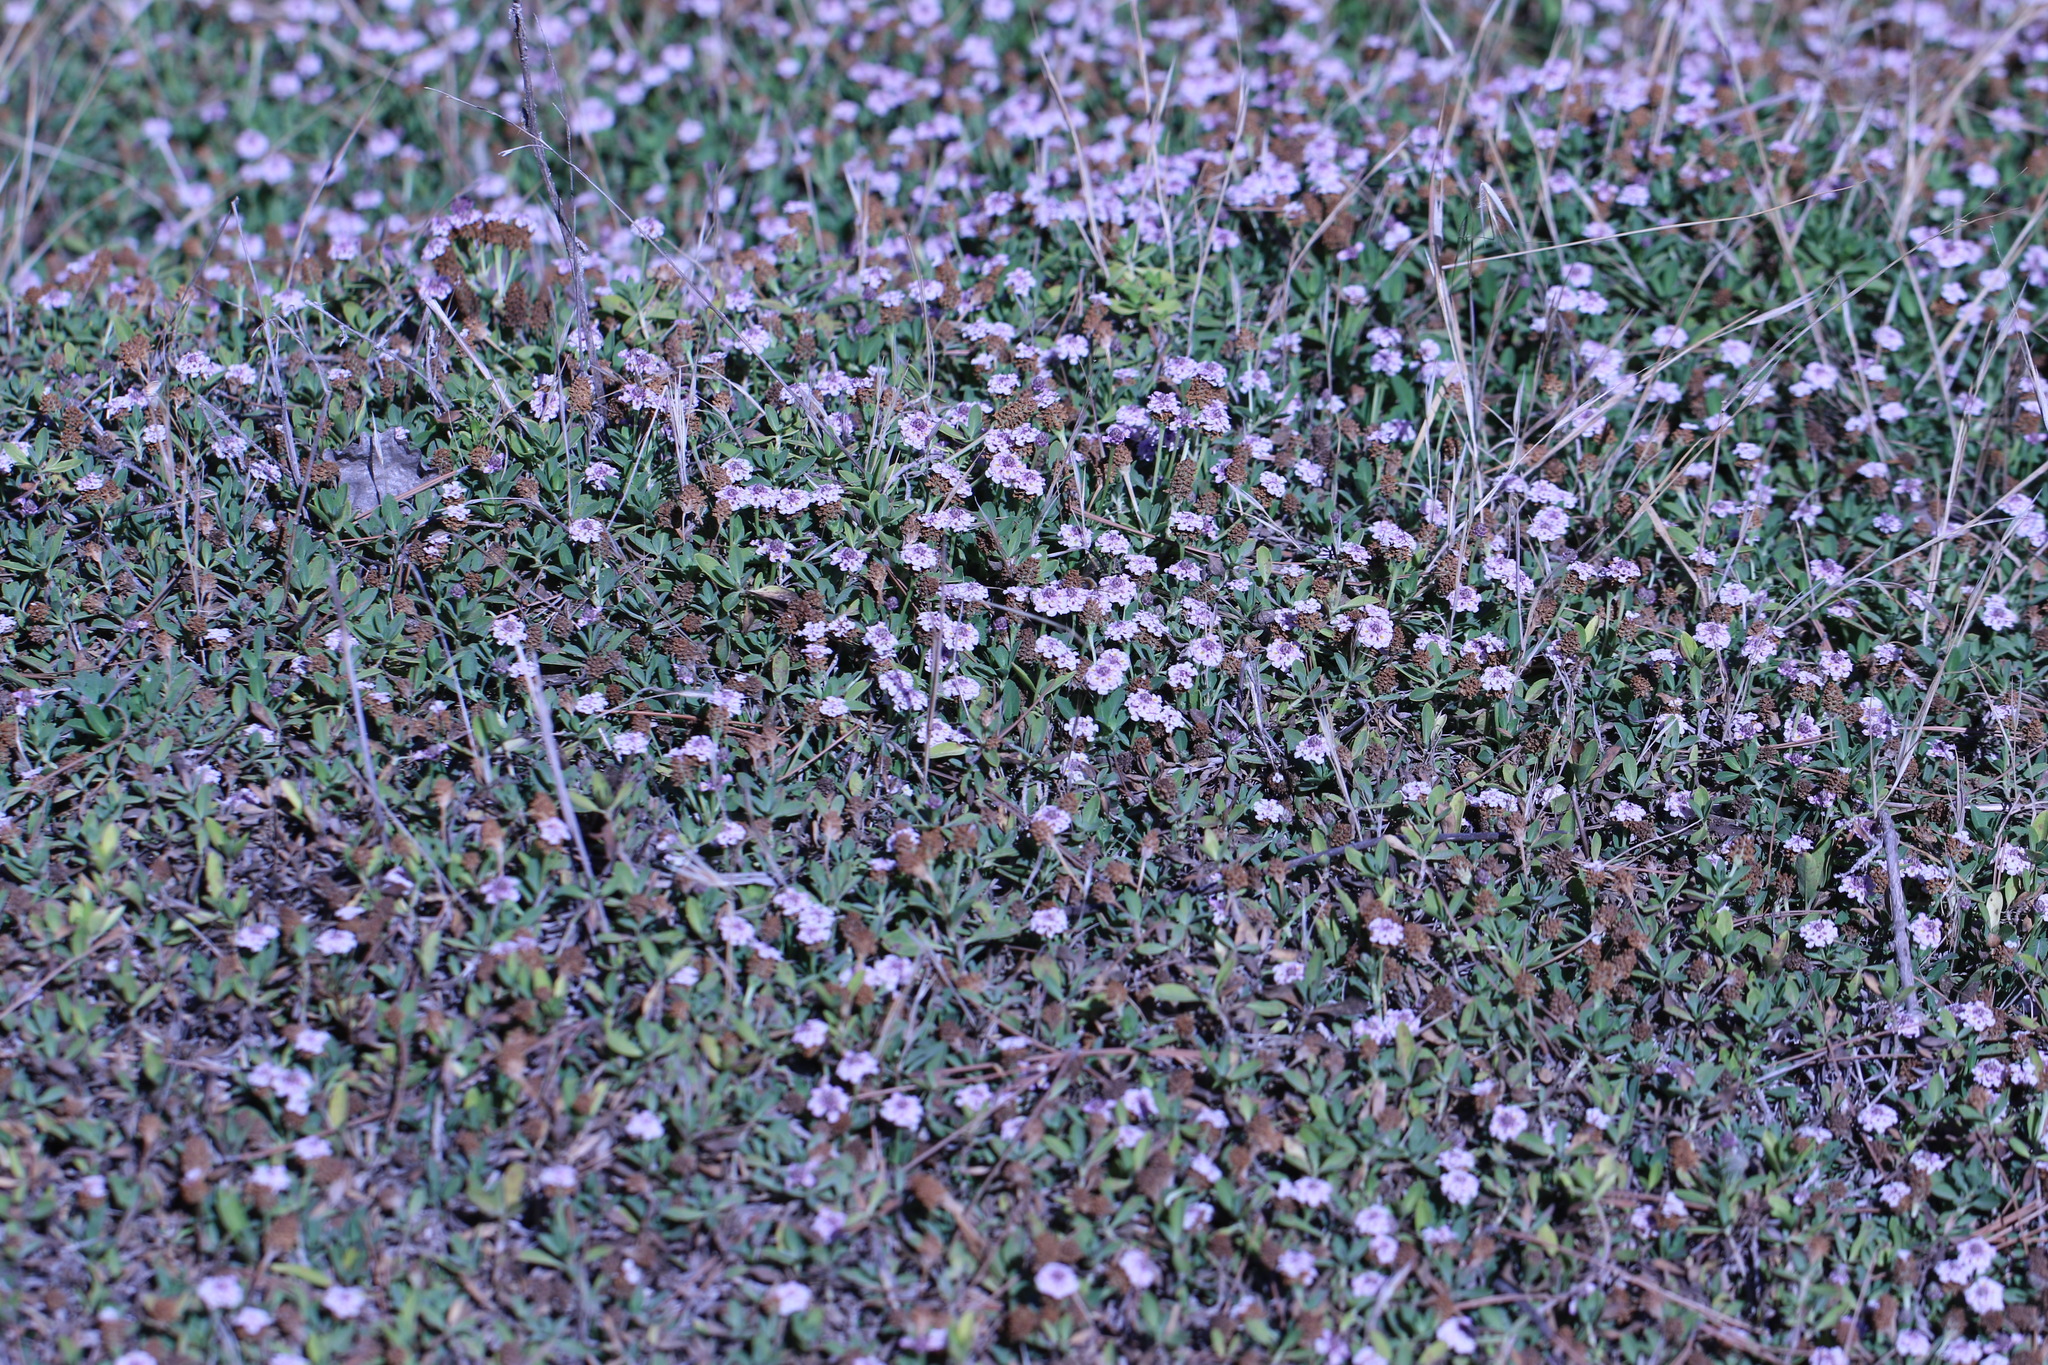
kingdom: Plantae
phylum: Tracheophyta
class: Magnoliopsida
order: Lamiales
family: Verbenaceae
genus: Phyla
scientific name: Phyla nodiflora
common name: Frogfruit
